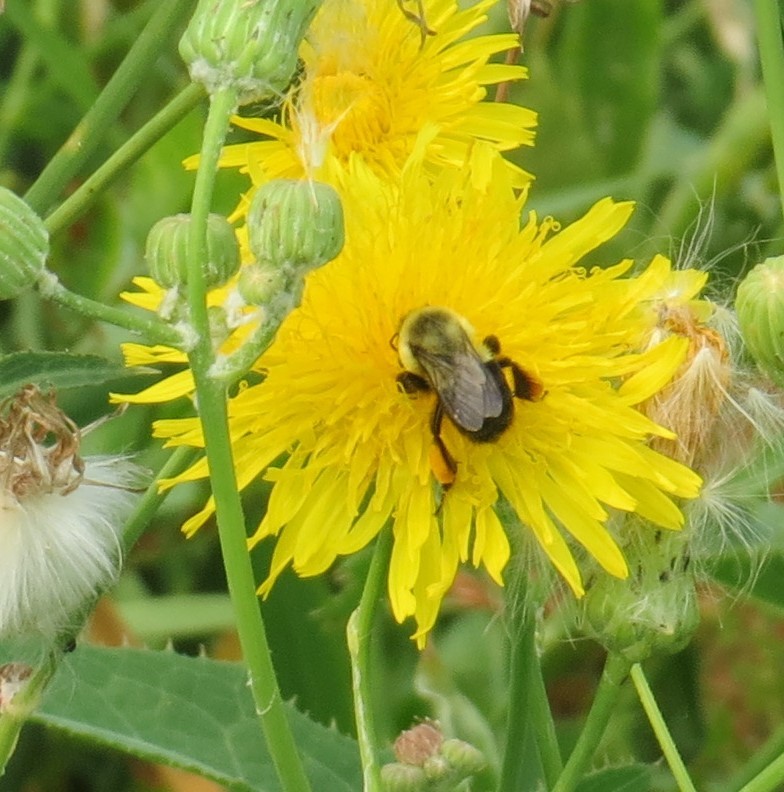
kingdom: Animalia
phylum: Arthropoda
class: Insecta
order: Hymenoptera
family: Apidae
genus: Bombus
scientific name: Bombus impatiens
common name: Common eastern bumble bee
